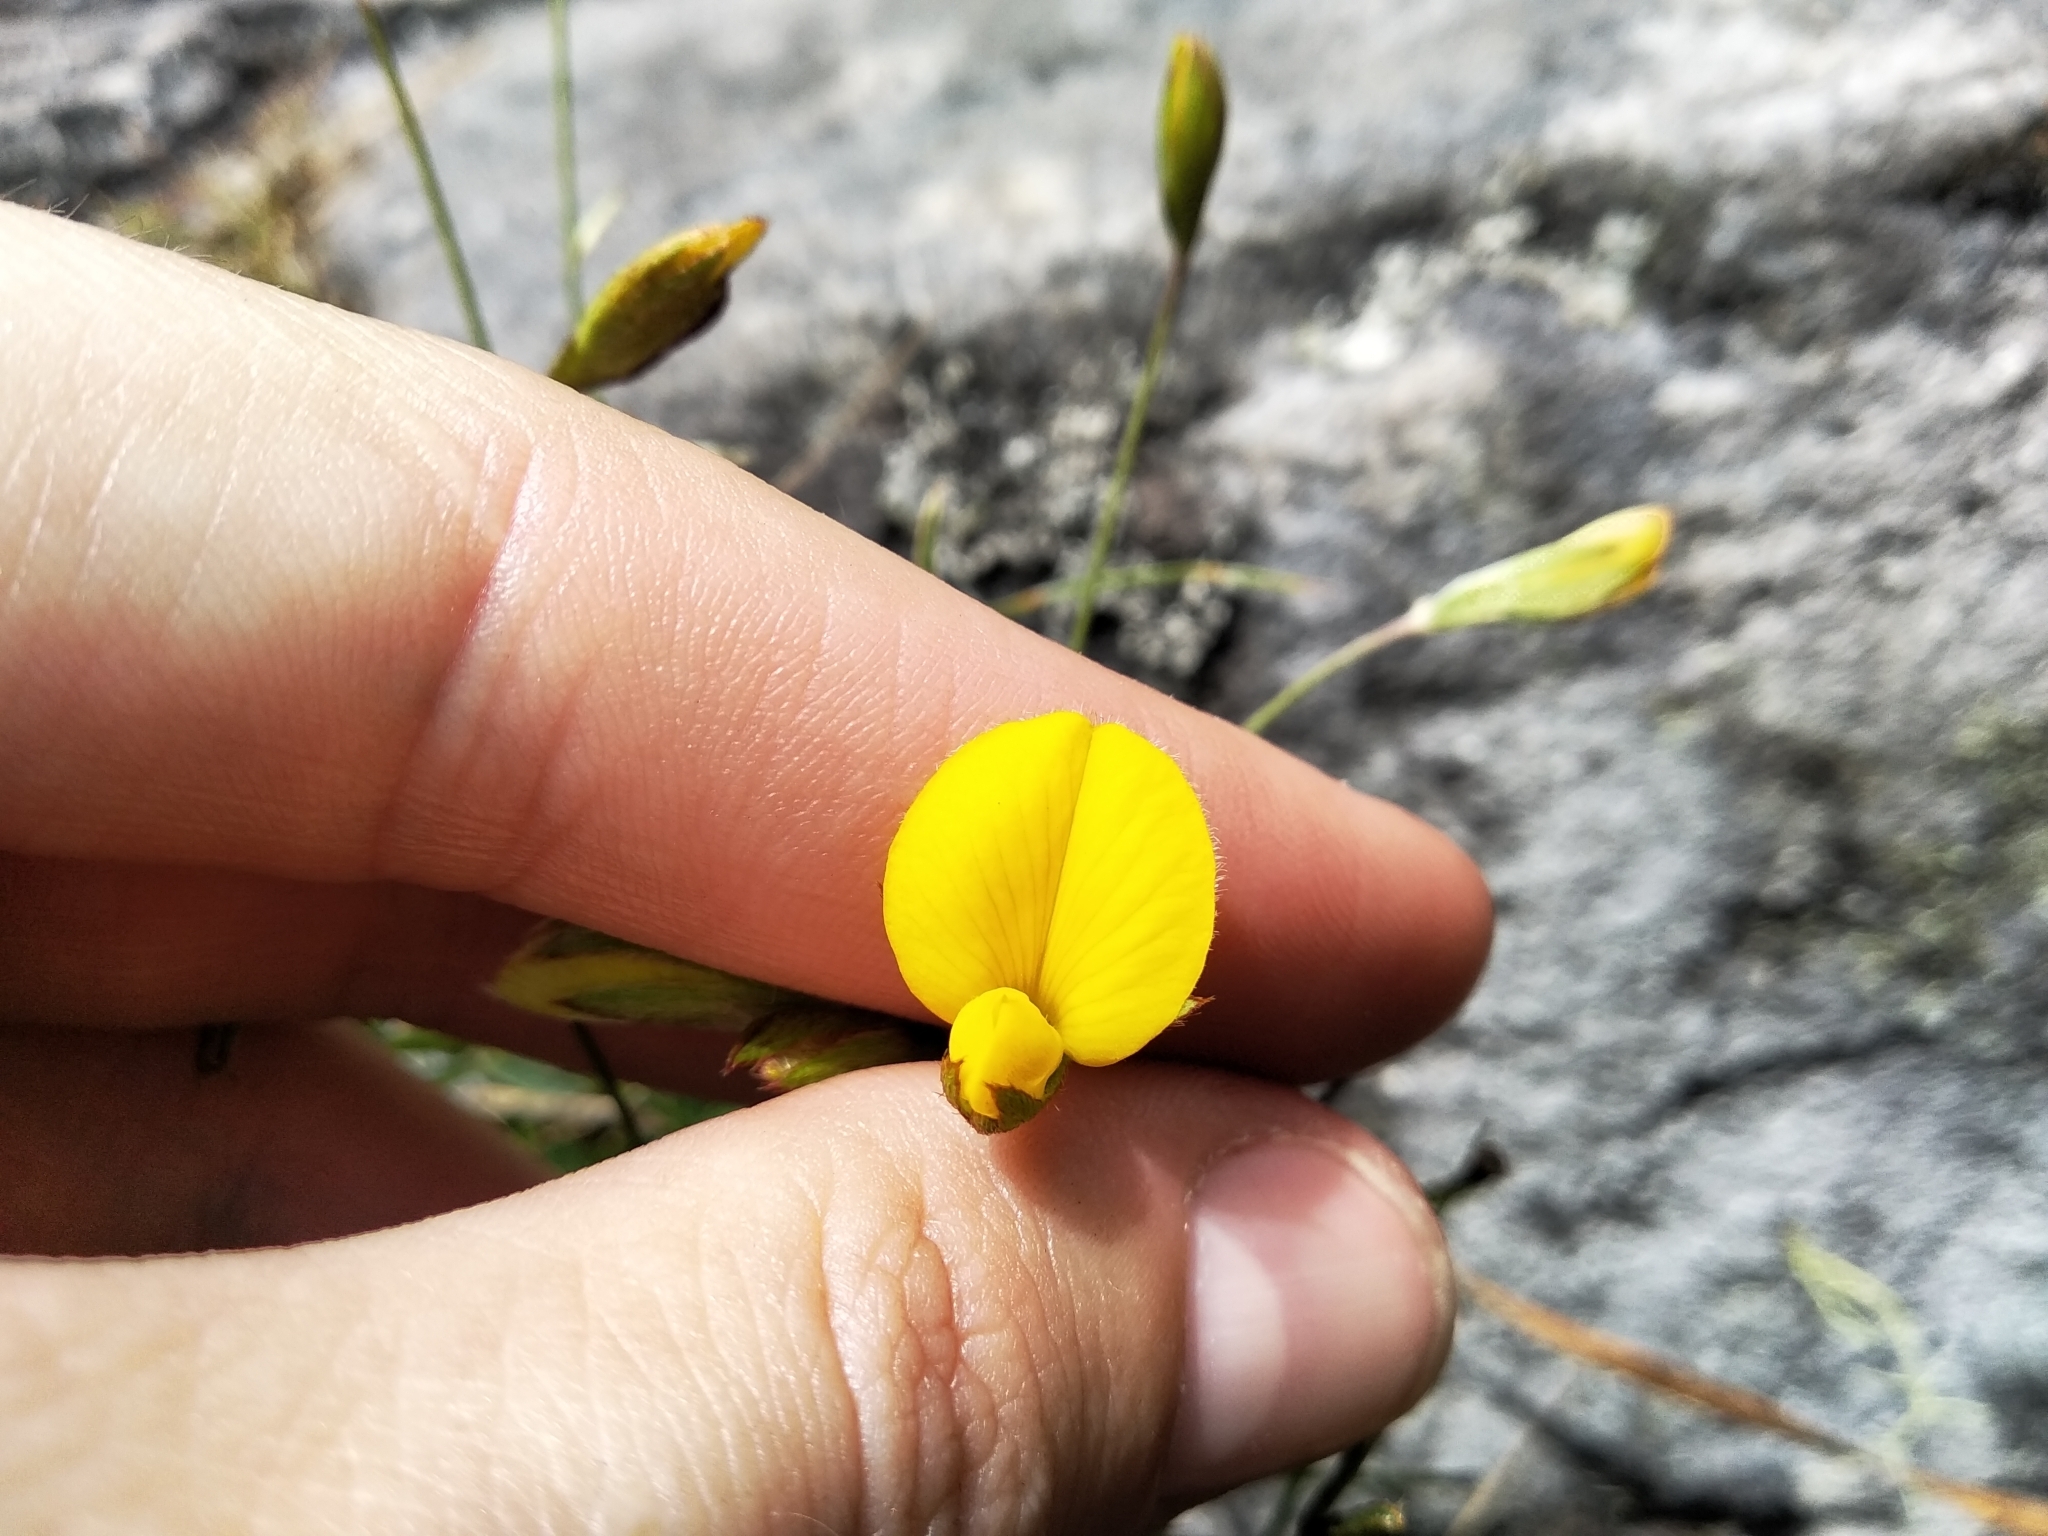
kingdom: Plantae
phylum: Tracheophyta
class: Magnoliopsida
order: Fabales
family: Fabaceae
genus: Argyrolobium
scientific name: Argyrolobium lunare
